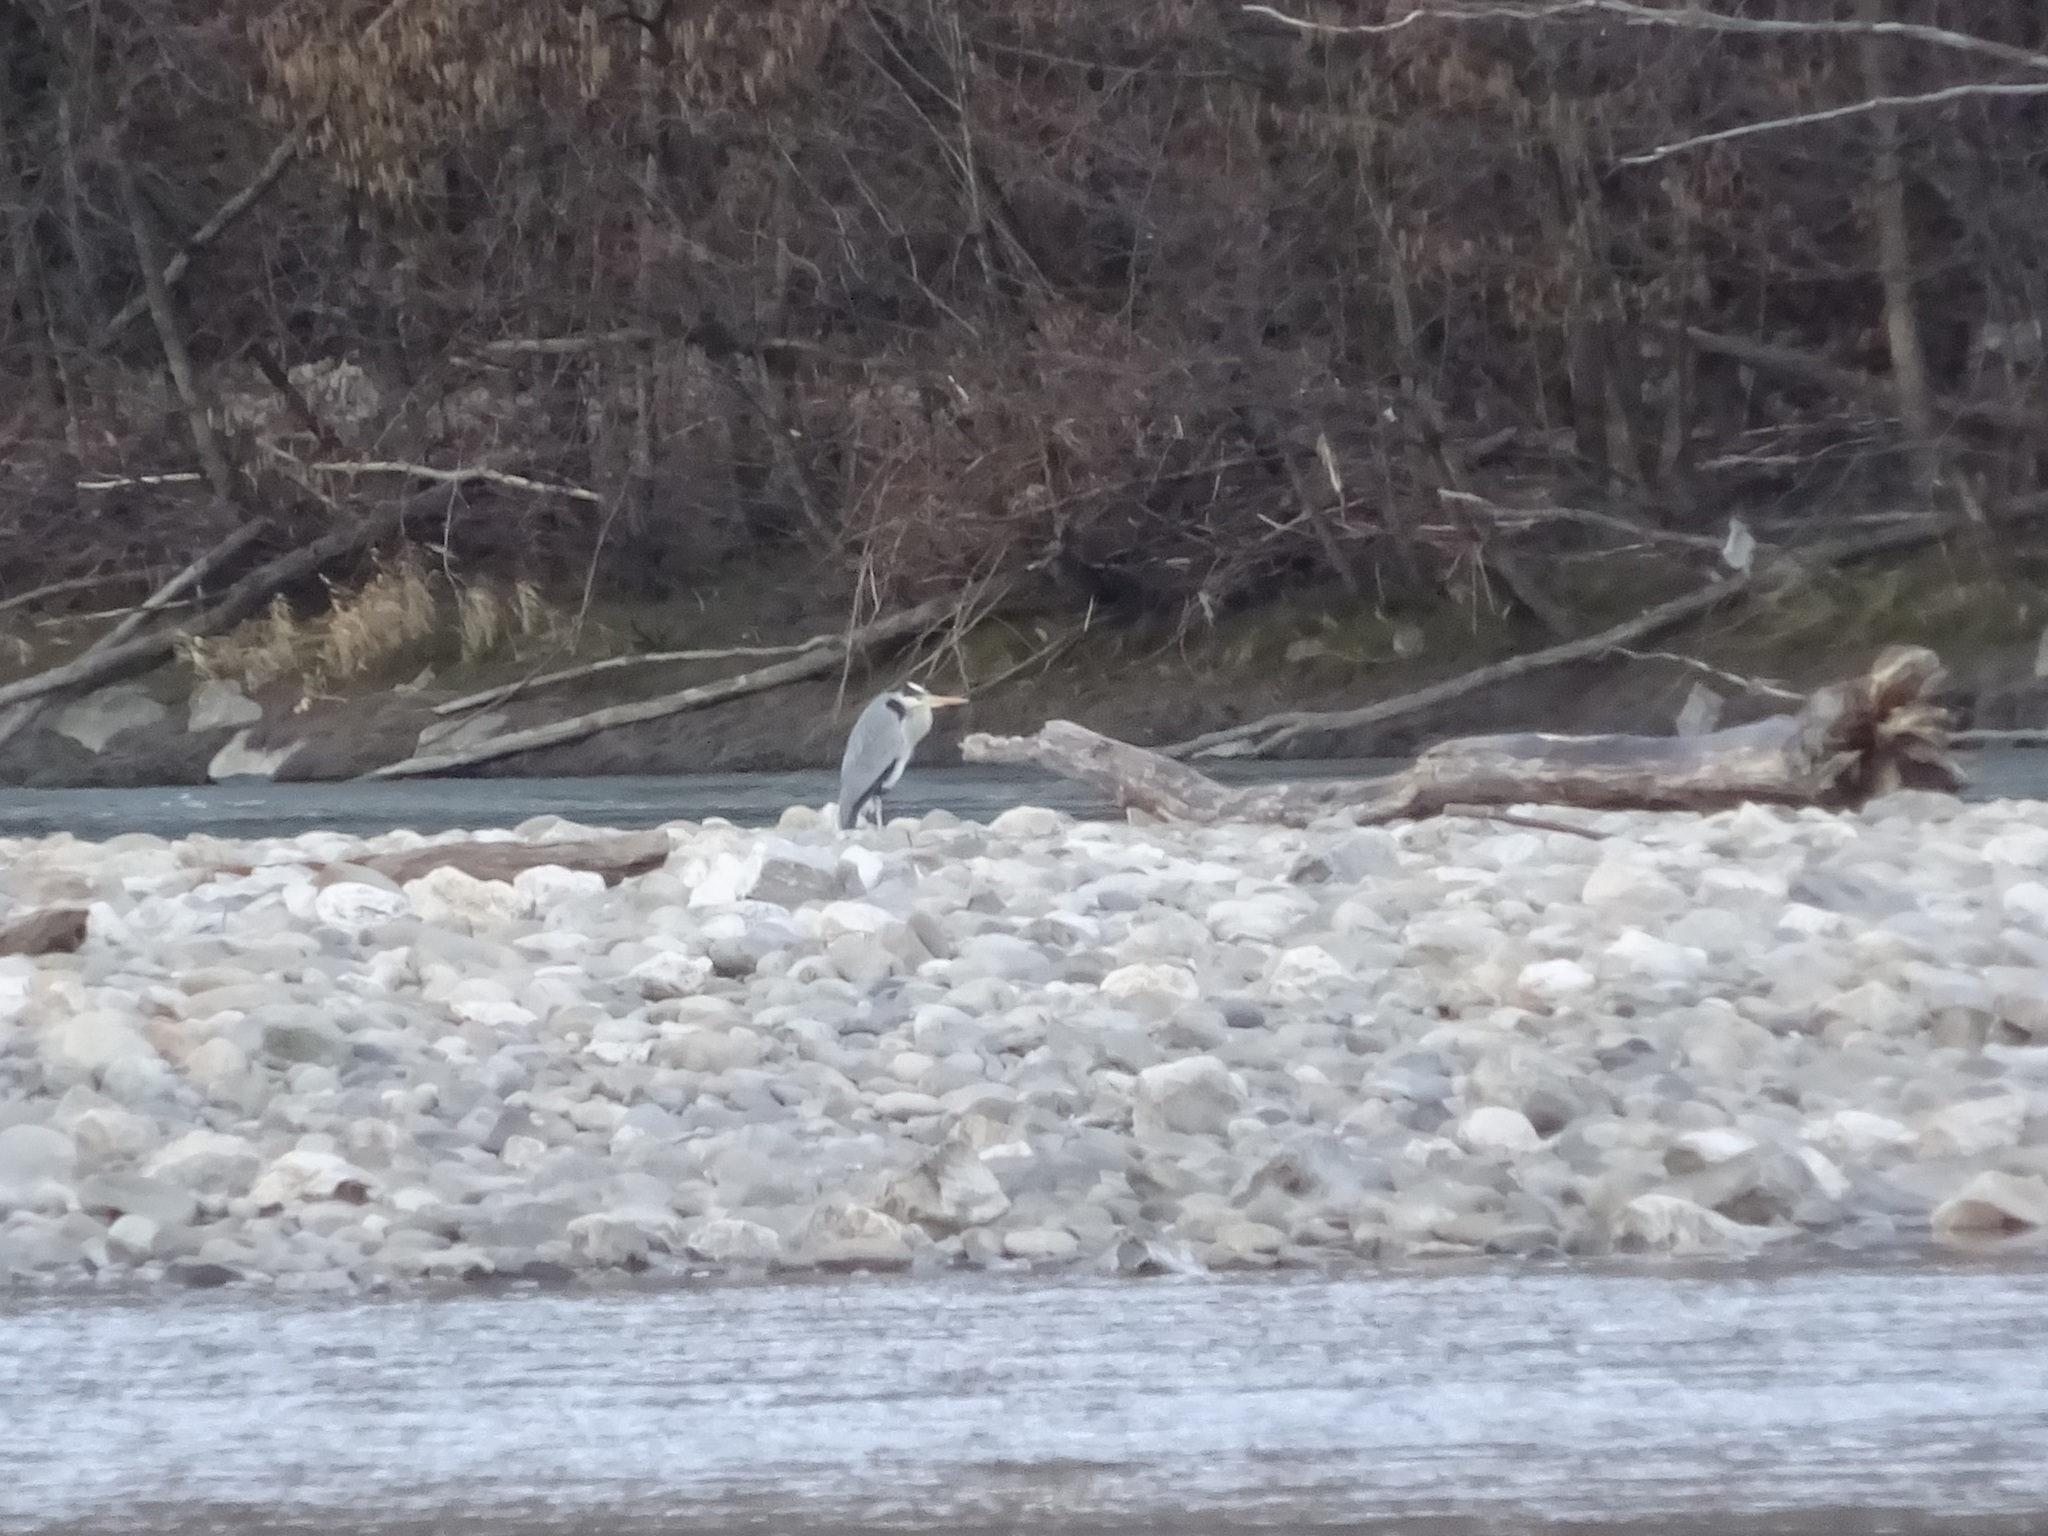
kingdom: Animalia
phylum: Chordata
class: Aves
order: Pelecaniformes
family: Ardeidae
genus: Ardea
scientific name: Ardea cinerea
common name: Grey heron
